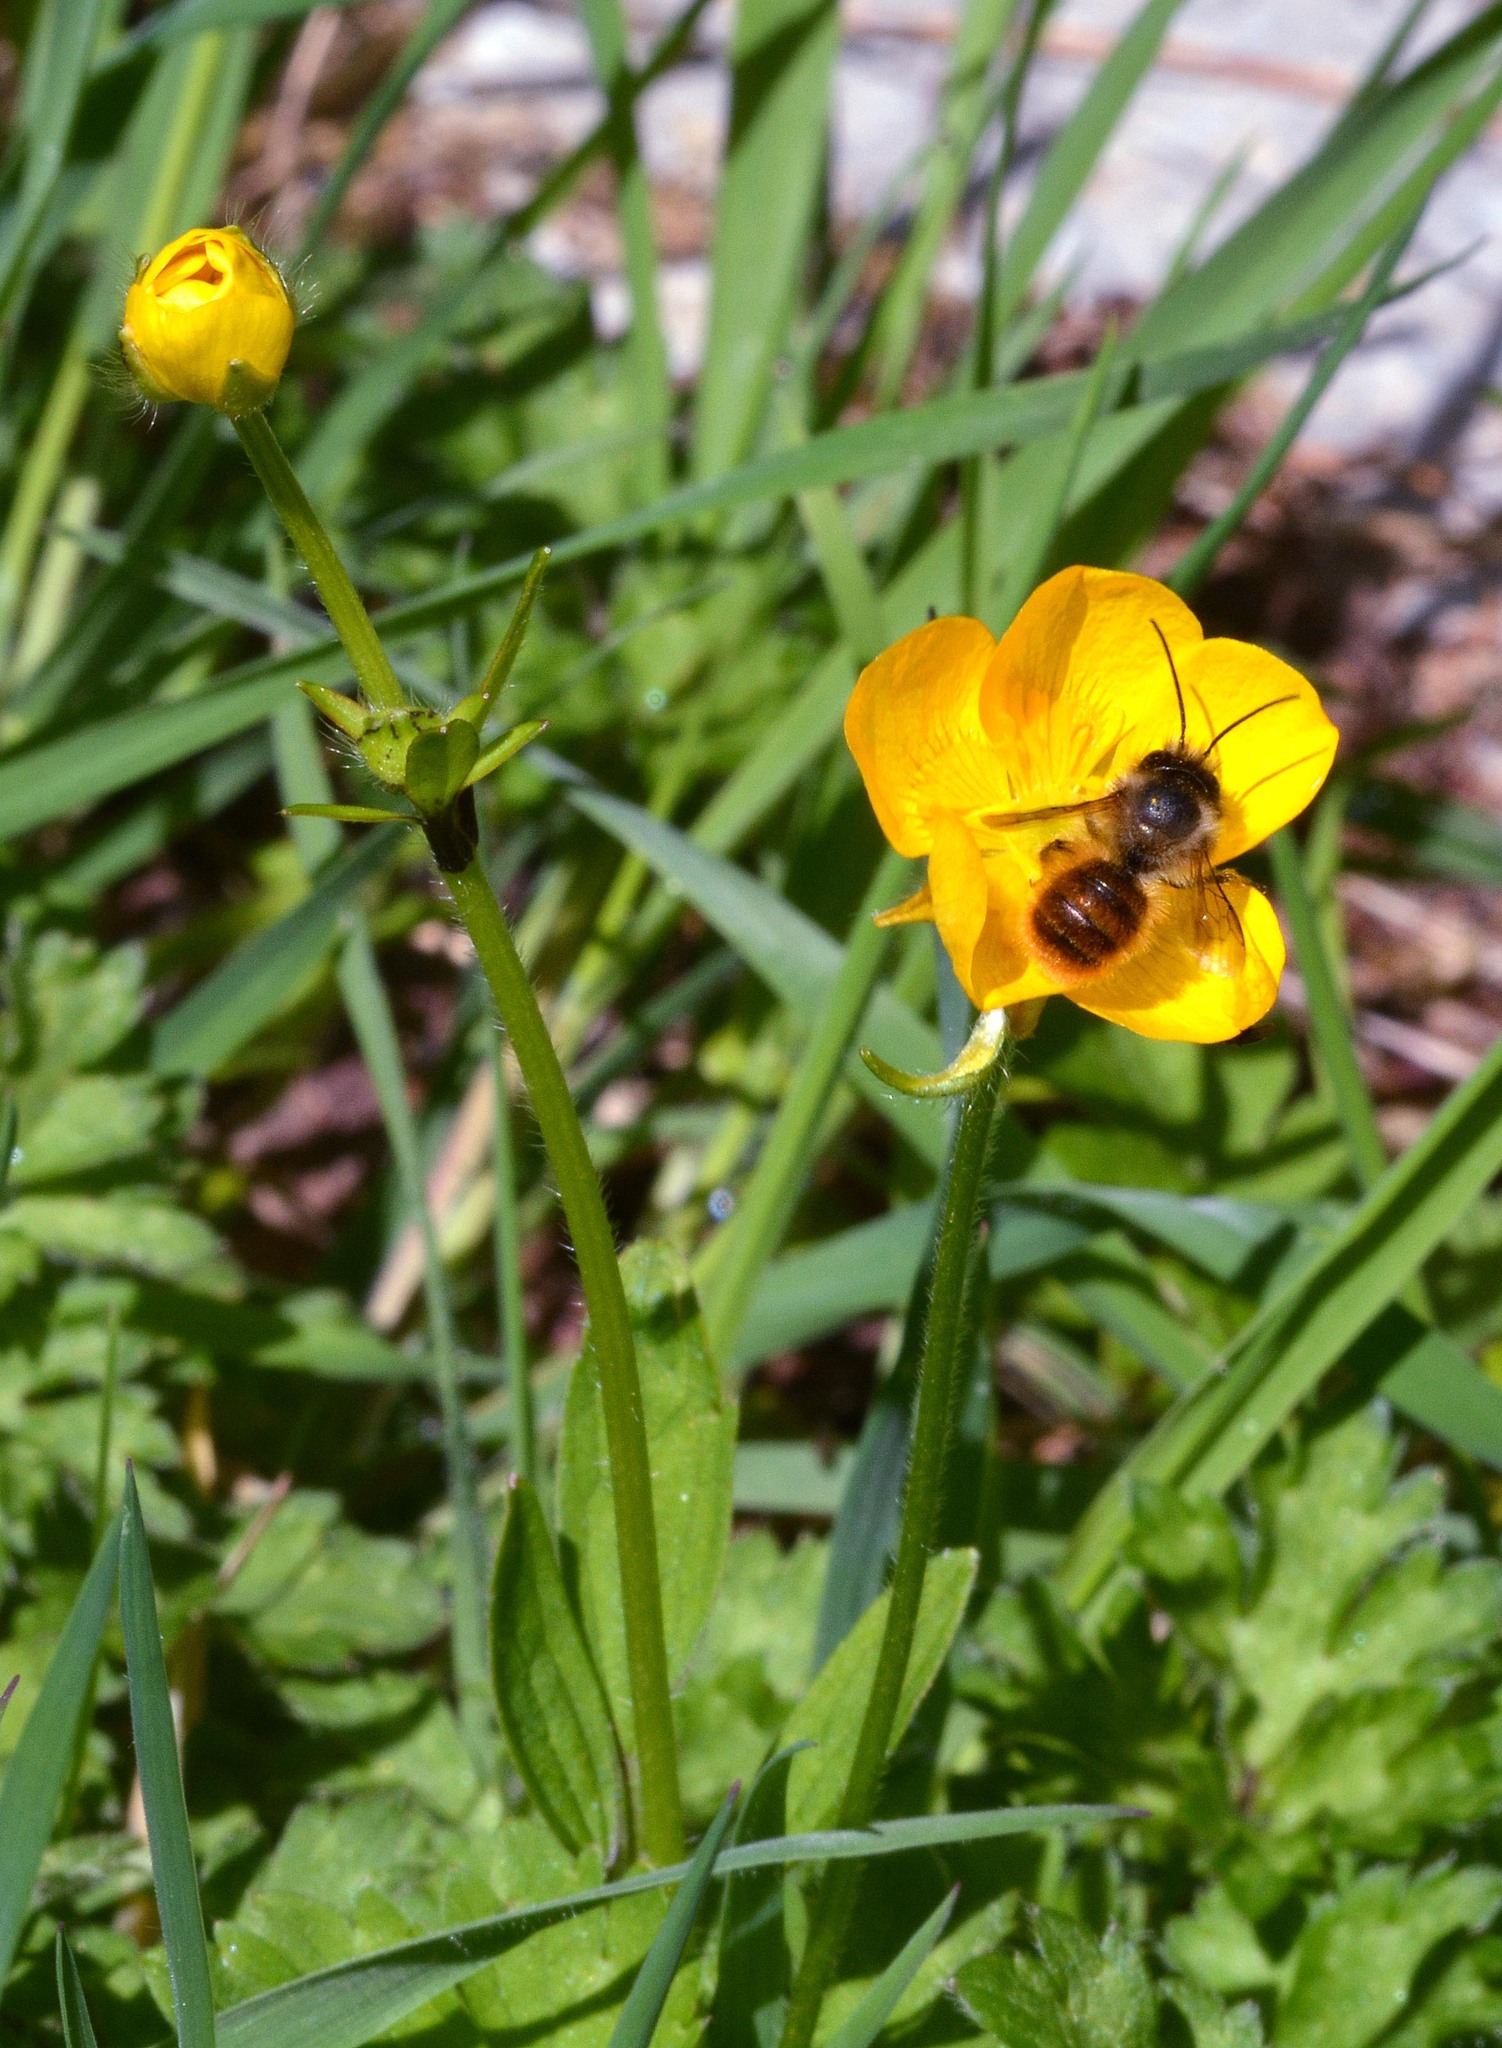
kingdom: Animalia
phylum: Arthropoda
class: Insecta
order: Hymenoptera
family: Megachilidae
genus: Osmia
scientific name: Osmia bicornis
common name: Red mason bee
